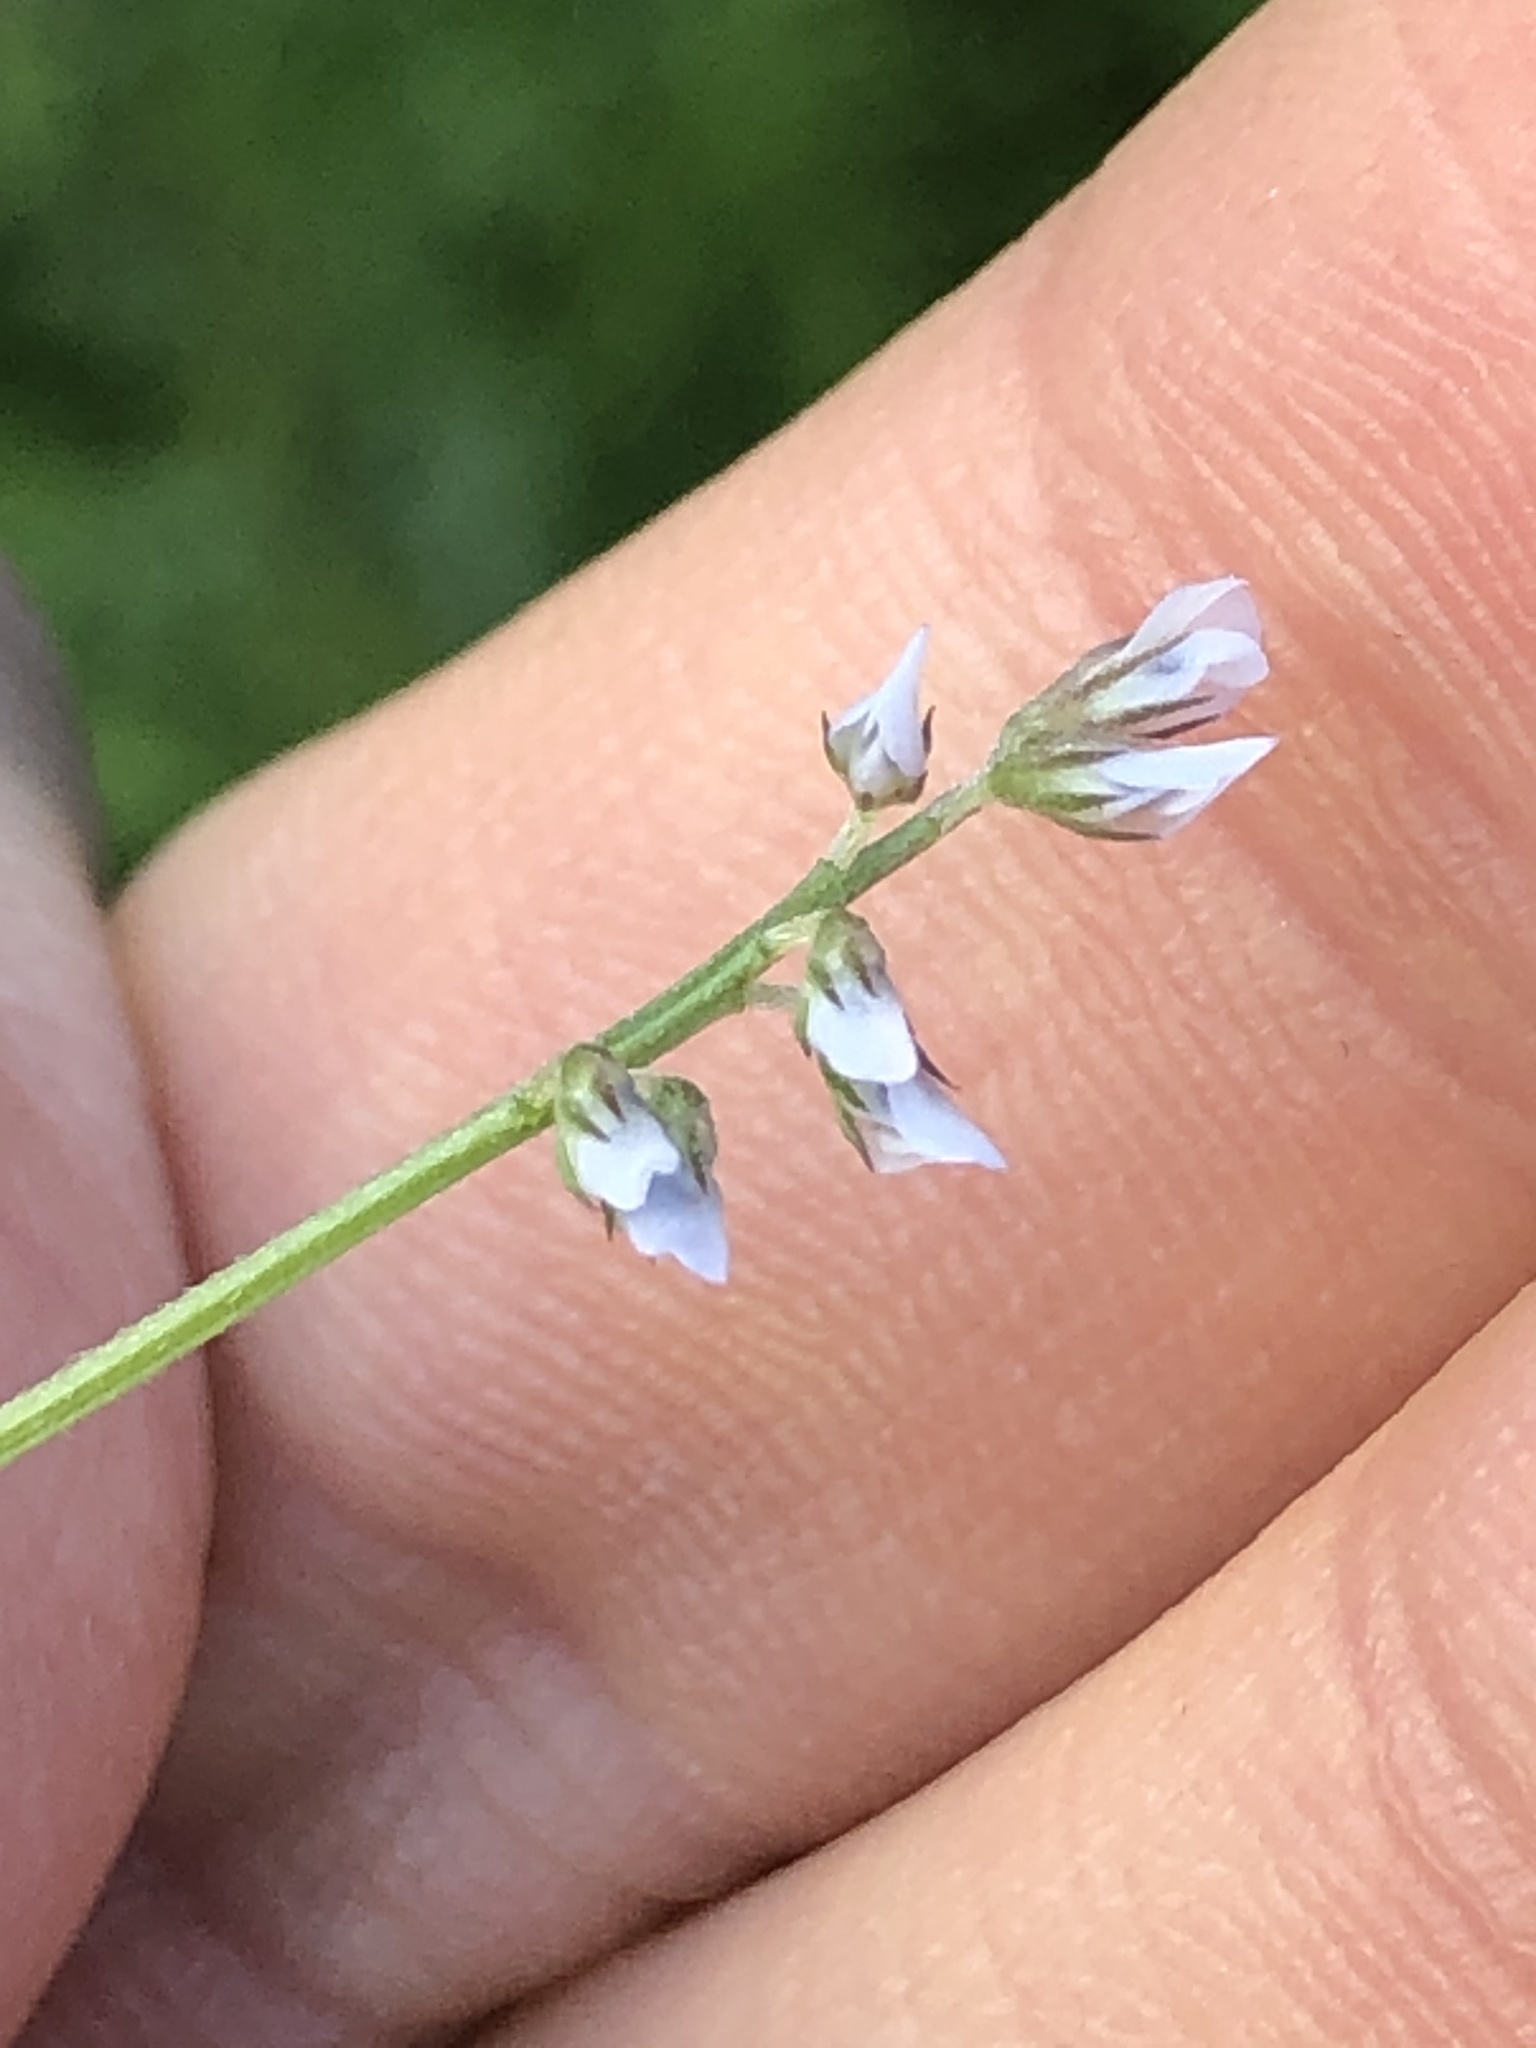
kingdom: Plantae
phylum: Tracheophyta
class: Magnoliopsida
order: Fabales
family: Fabaceae
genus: Vicia
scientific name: Vicia hirsuta
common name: Tiny vetch
